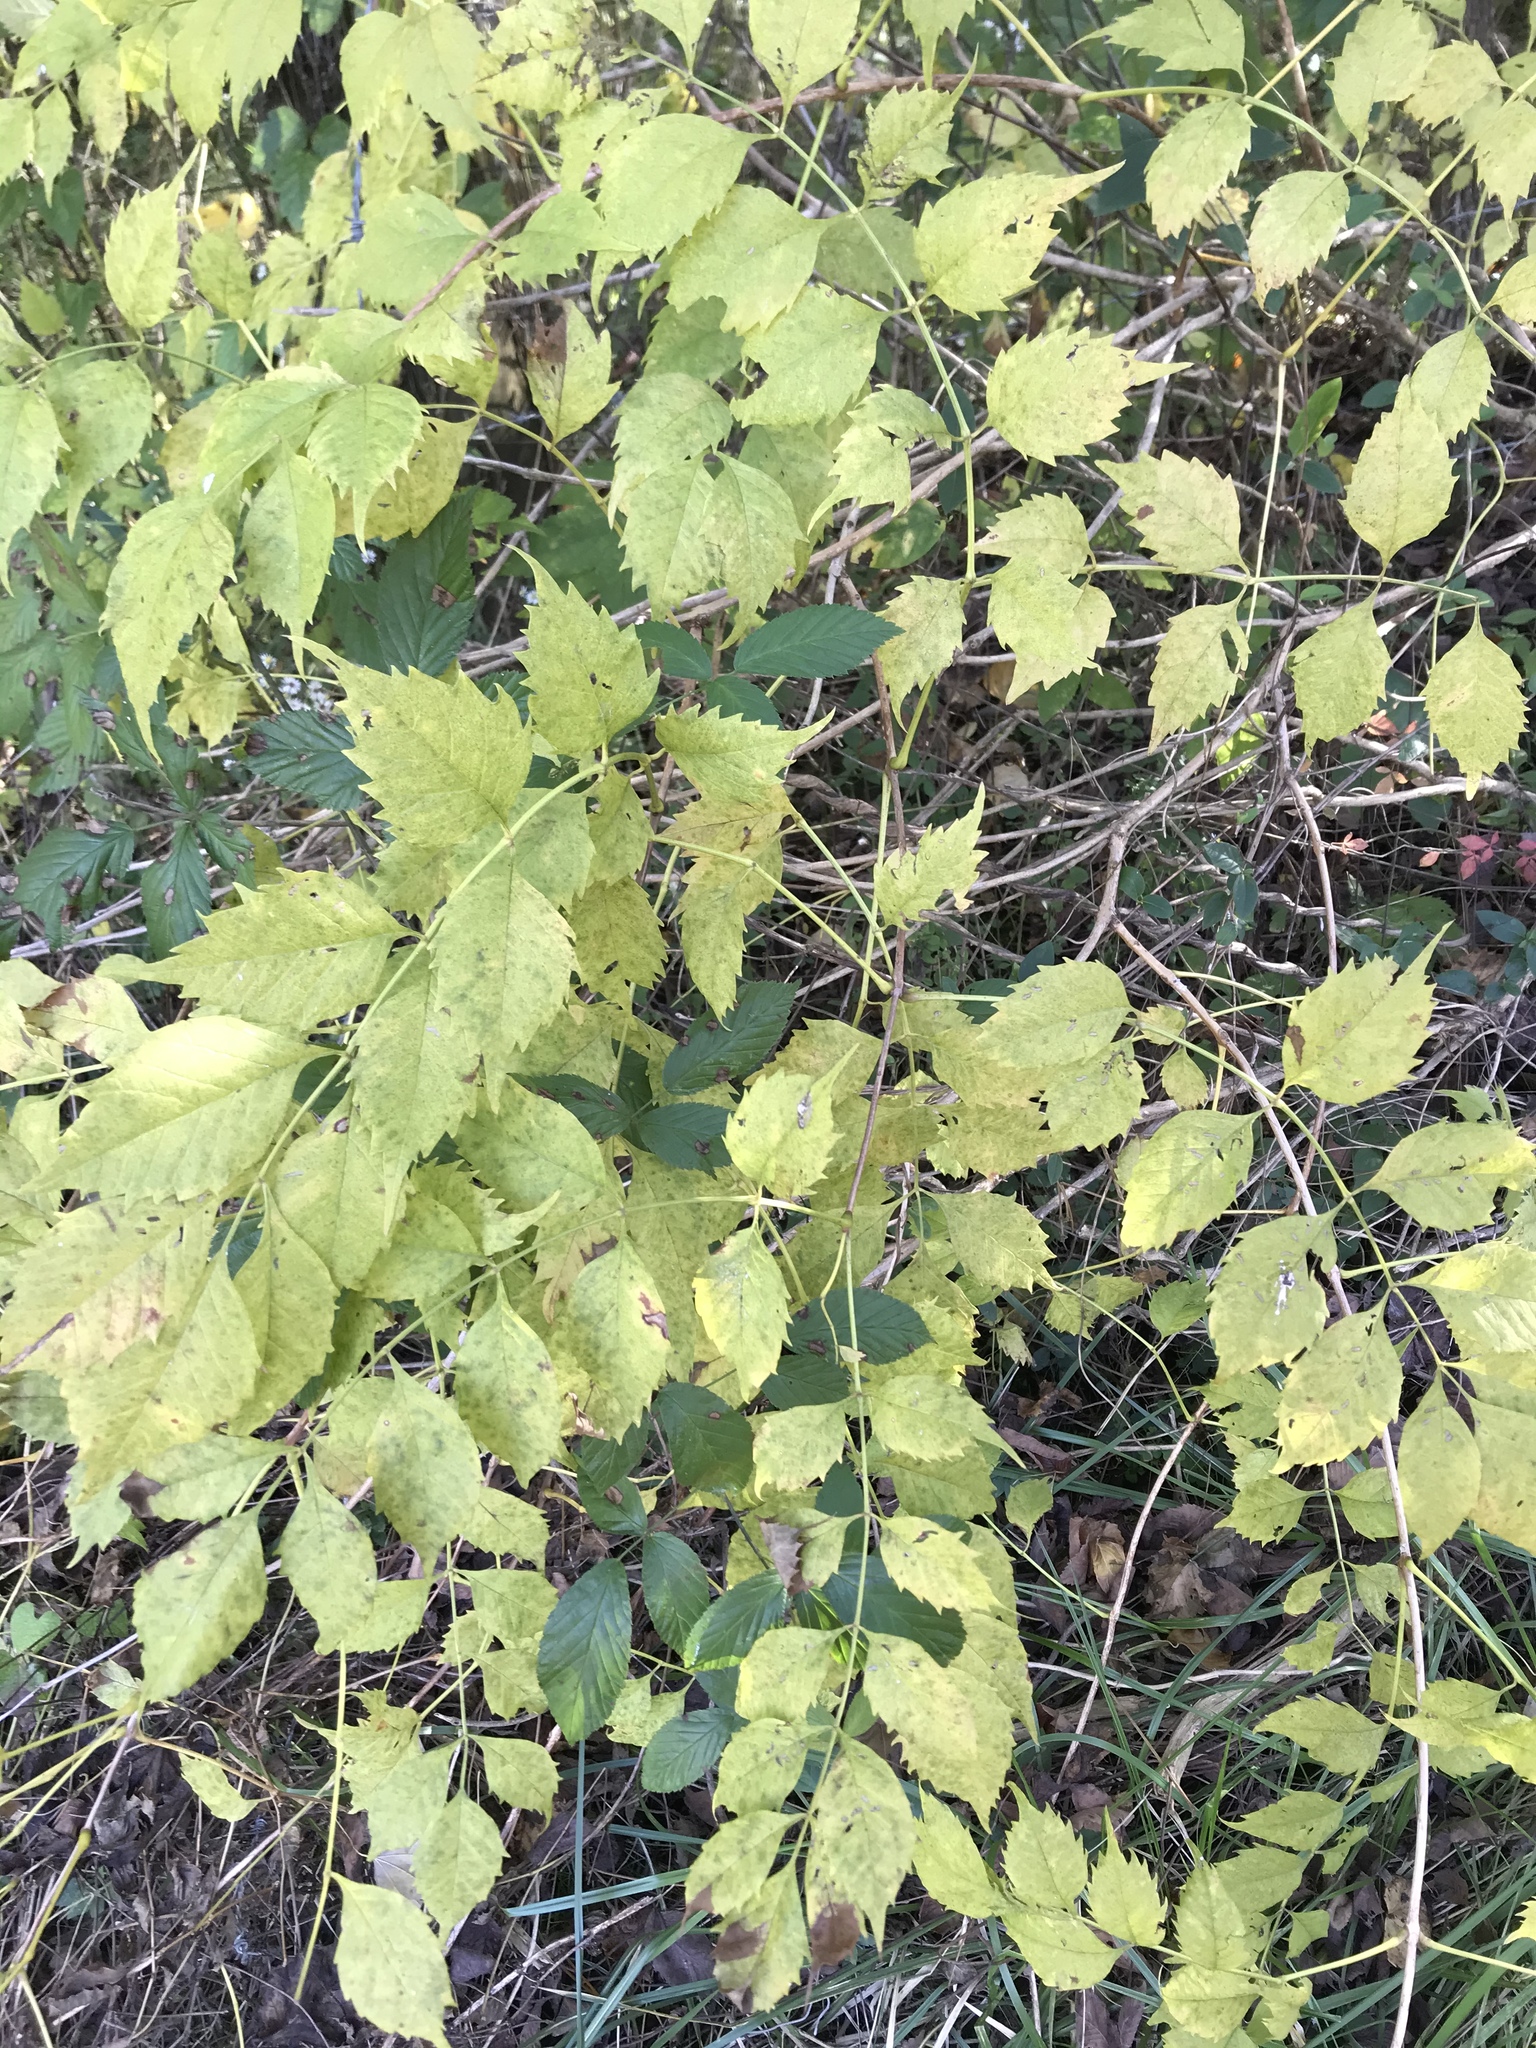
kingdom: Plantae
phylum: Tracheophyta
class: Magnoliopsida
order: Lamiales
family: Bignoniaceae
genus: Campsis
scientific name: Campsis radicans
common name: Trumpet-creeper
